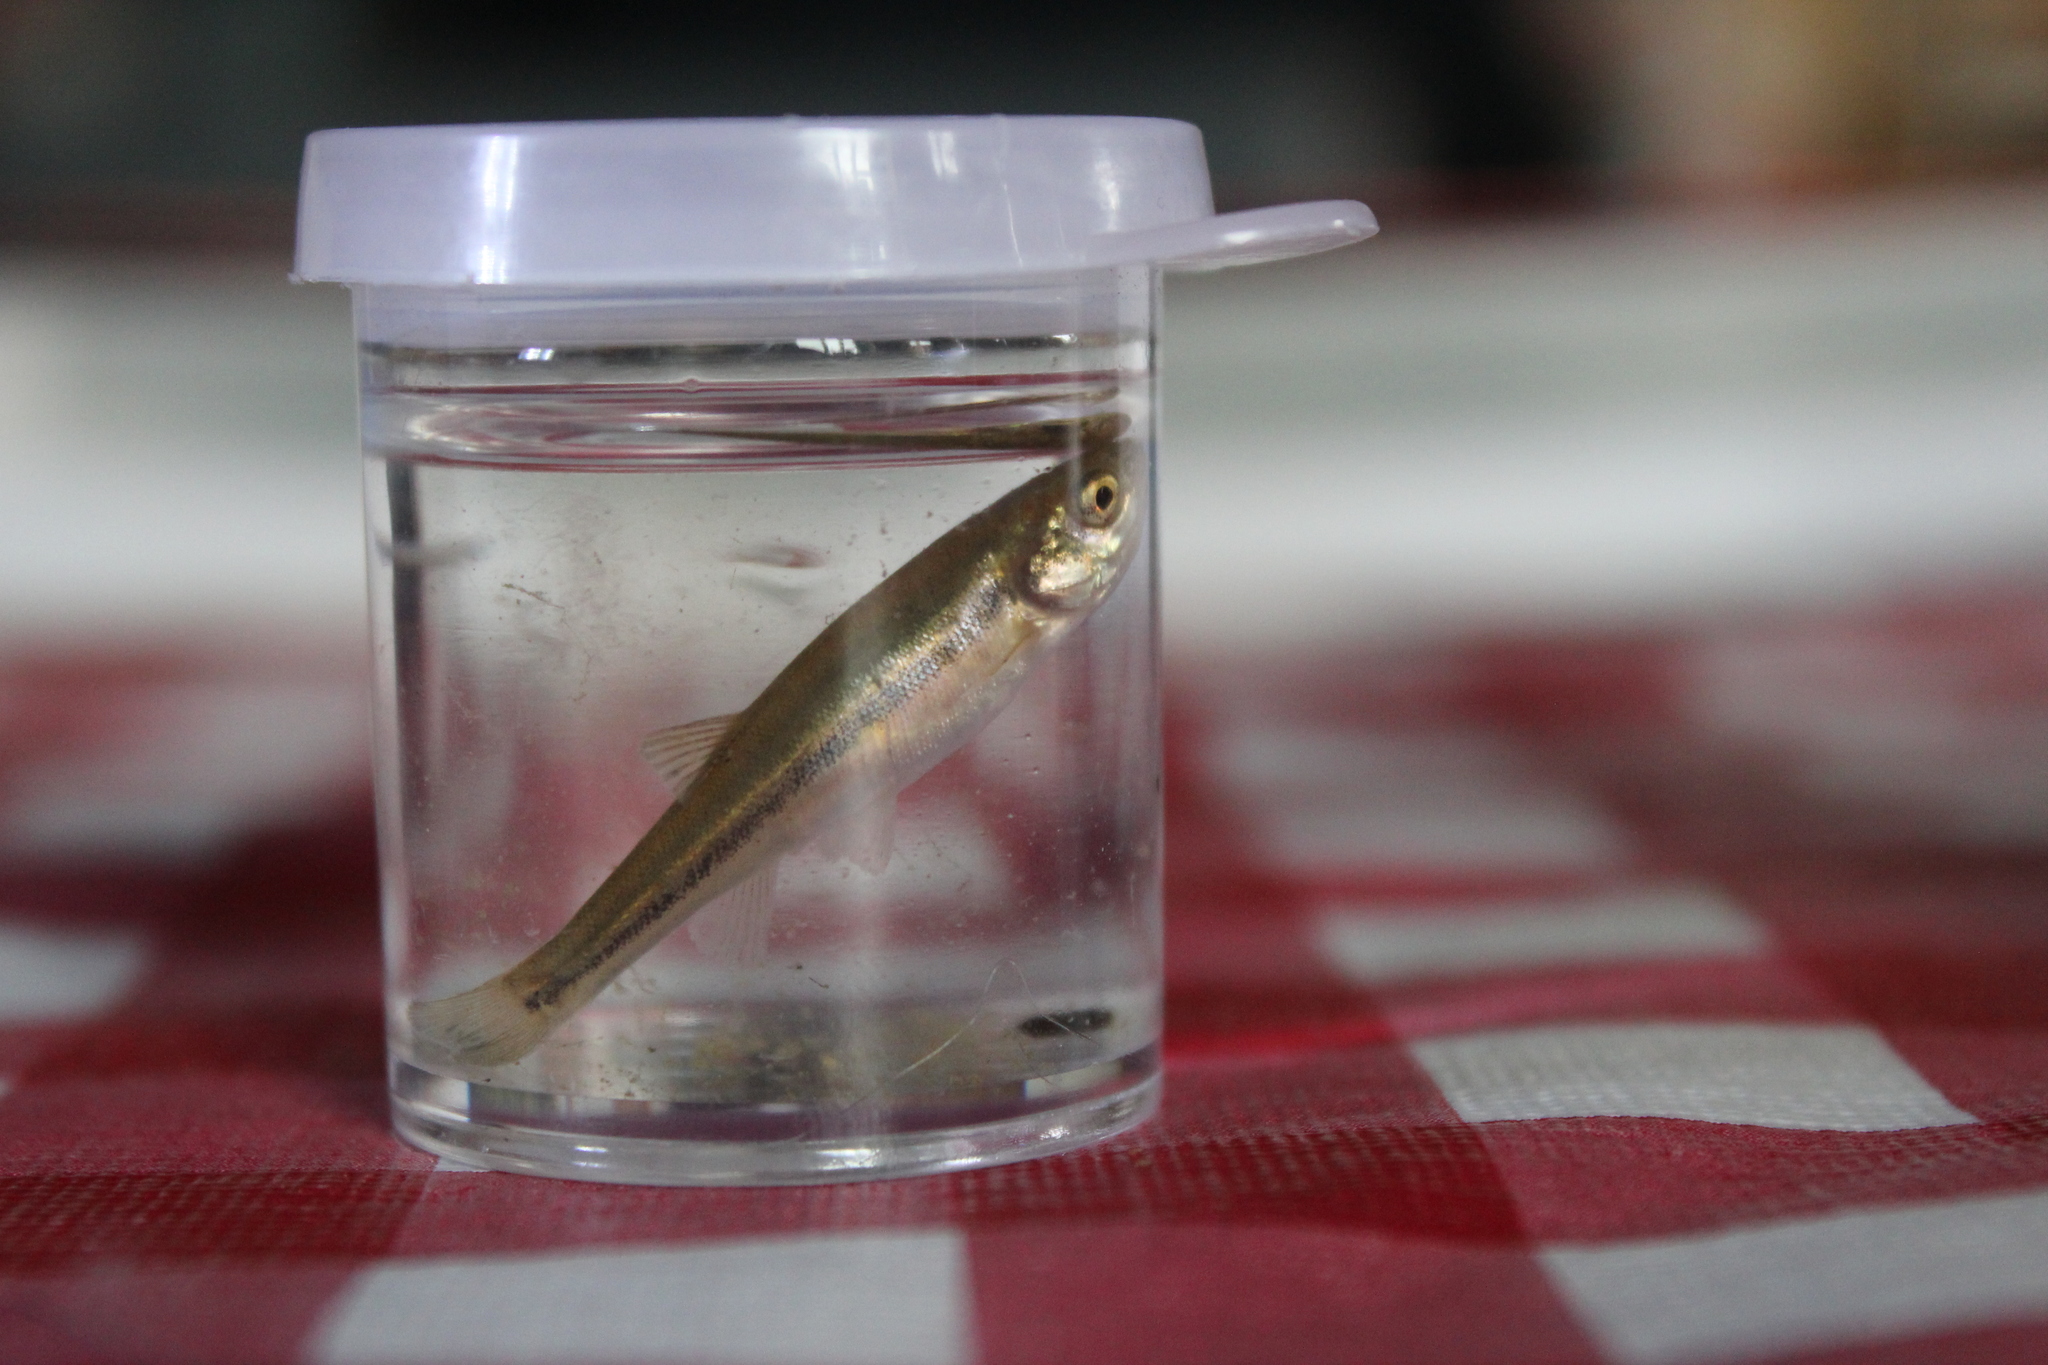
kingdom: Animalia
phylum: Chordata
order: Cypriniformes
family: Cyprinidae
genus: Margariscus
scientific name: Margariscus nachtriebi
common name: Northern pearl dace
